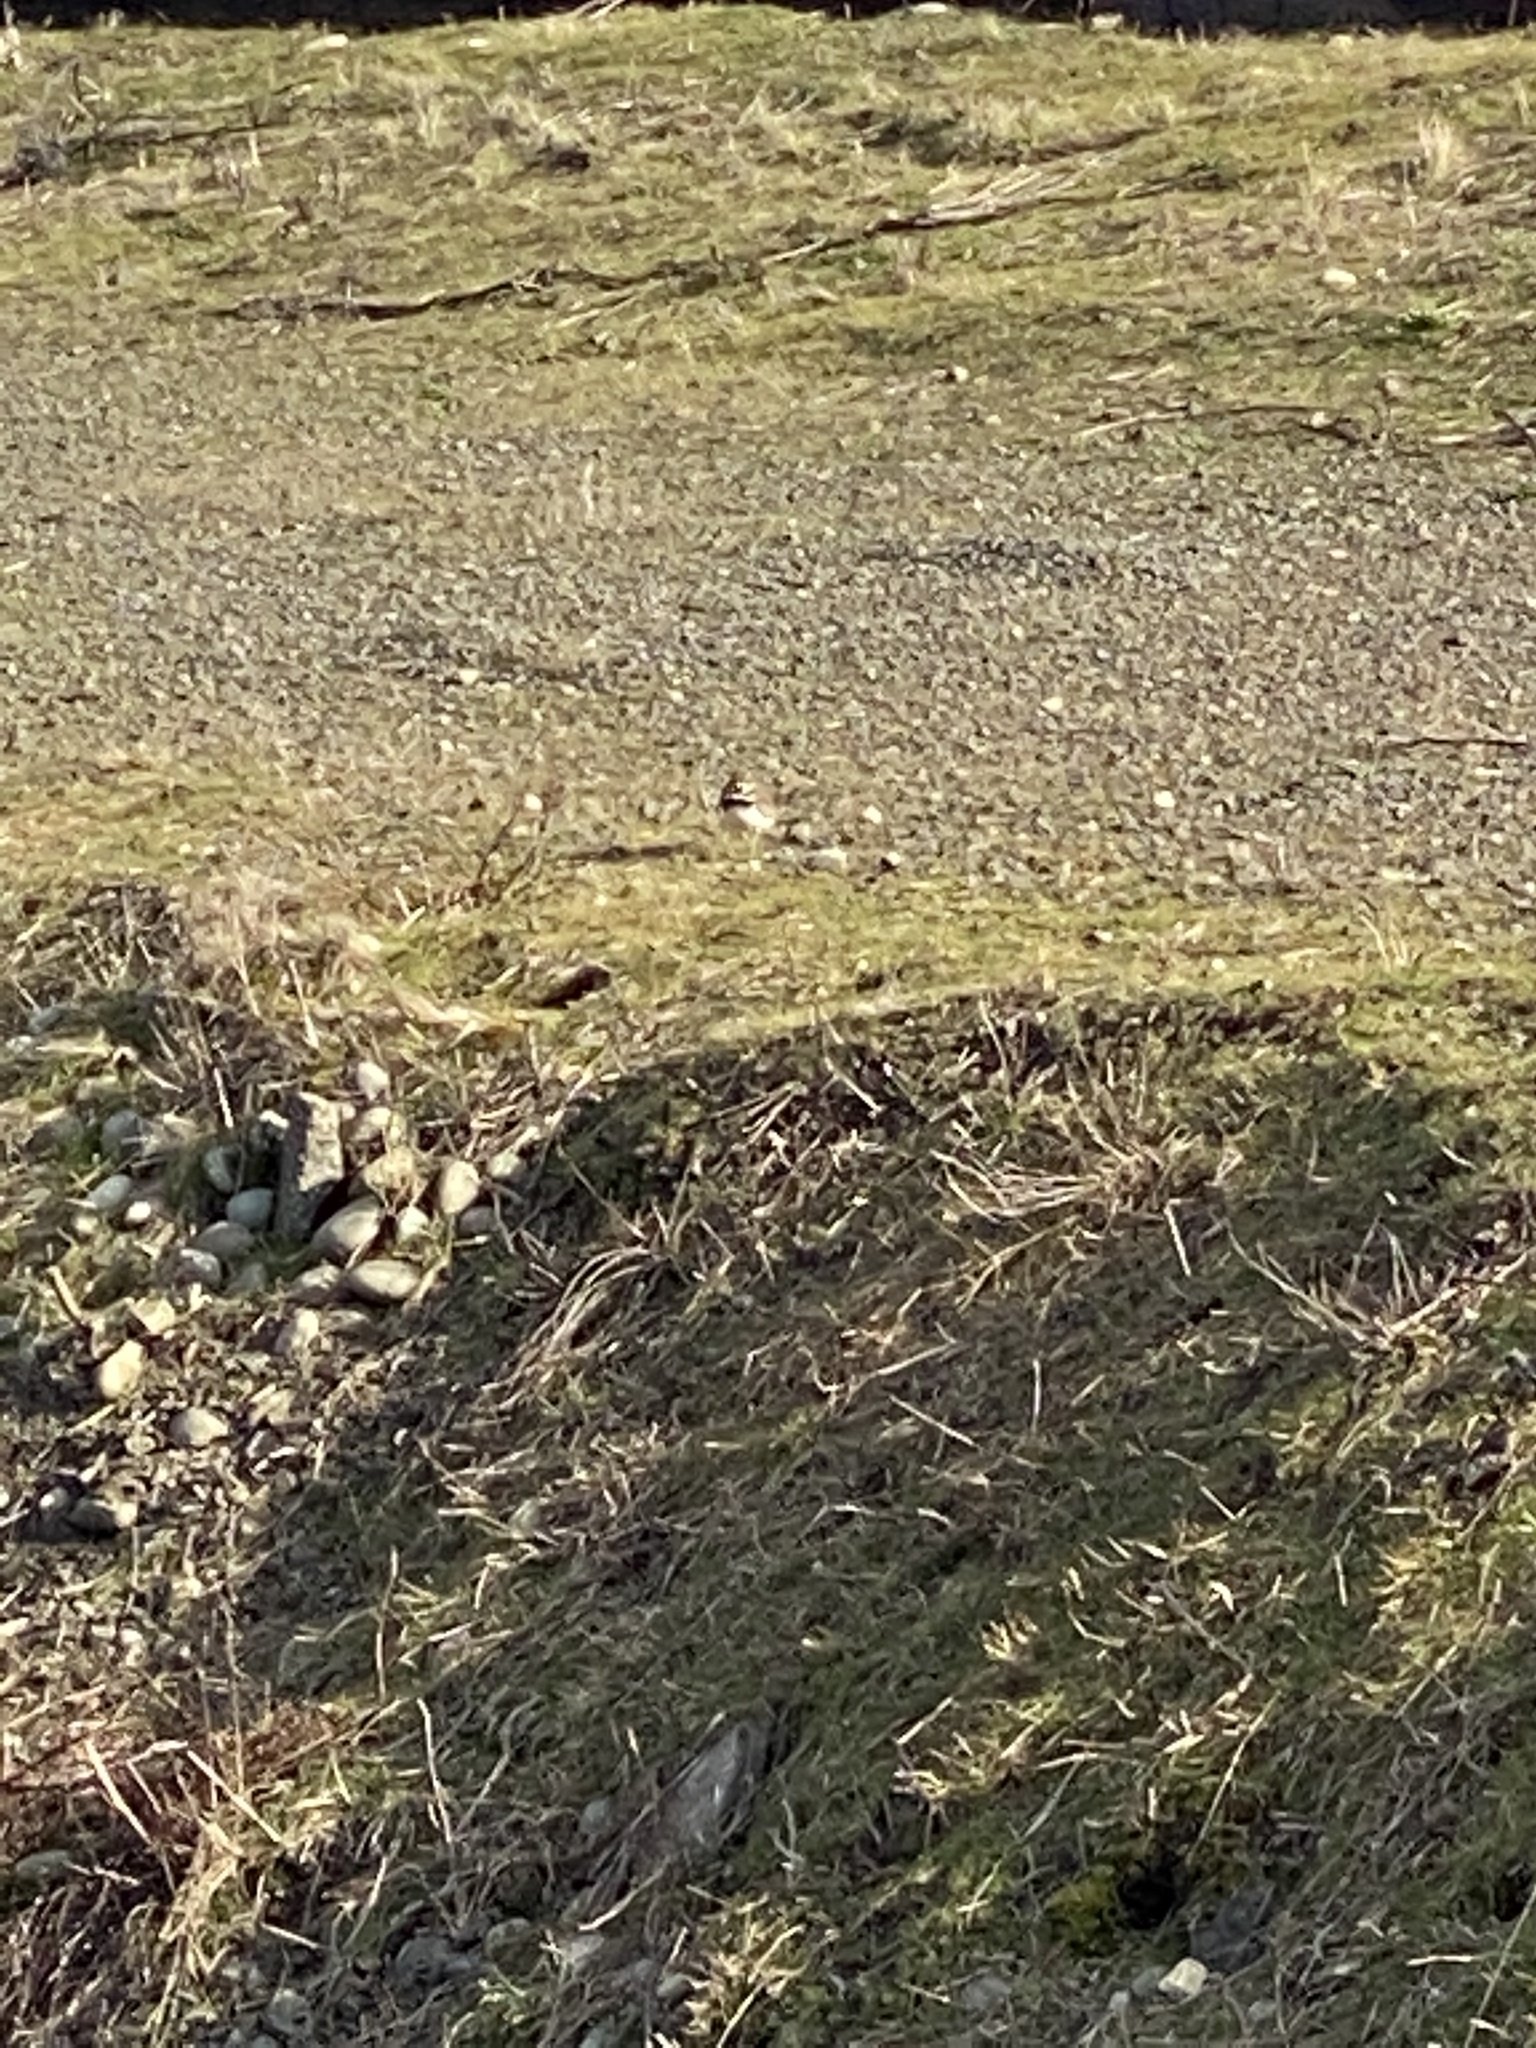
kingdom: Animalia
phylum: Chordata
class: Aves
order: Charadriiformes
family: Charadriidae
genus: Charadrius
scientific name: Charadrius vociferus
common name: Killdeer
